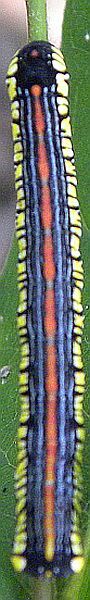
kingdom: Animalia
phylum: Arthropoda
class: Insecta
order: Lepidoptera
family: Noctuidae
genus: Cucullia
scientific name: Cucullia convexipennis
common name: Brown-hooded owlet
